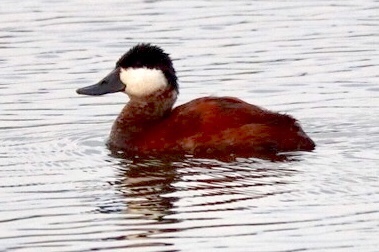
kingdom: Animalia
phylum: Chordata
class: Aves
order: Anseriformes
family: Anatidae
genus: Oxyura
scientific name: Oxyura jamaicensis
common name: Ruddy duck
